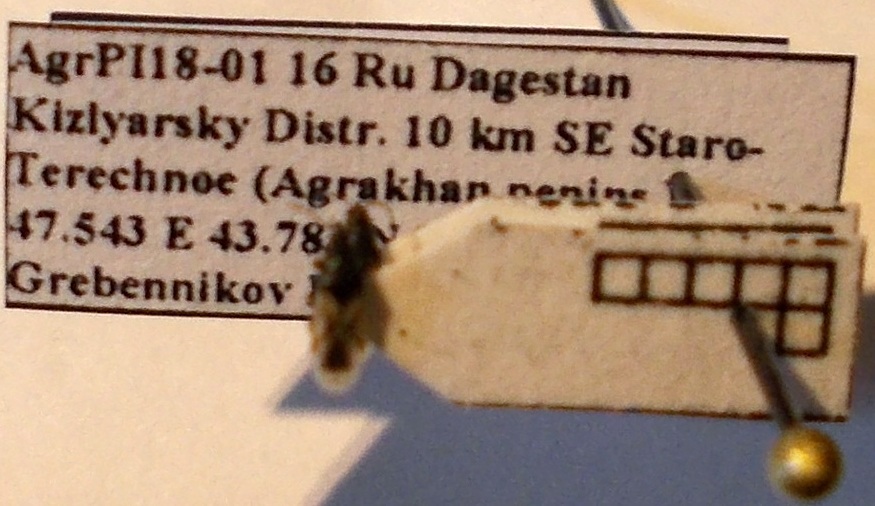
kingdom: Animalia
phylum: Arthropoda
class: Insecta
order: Hemiptera
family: Oxycarenidae
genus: Metopoplax
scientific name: Metopoplax origani
